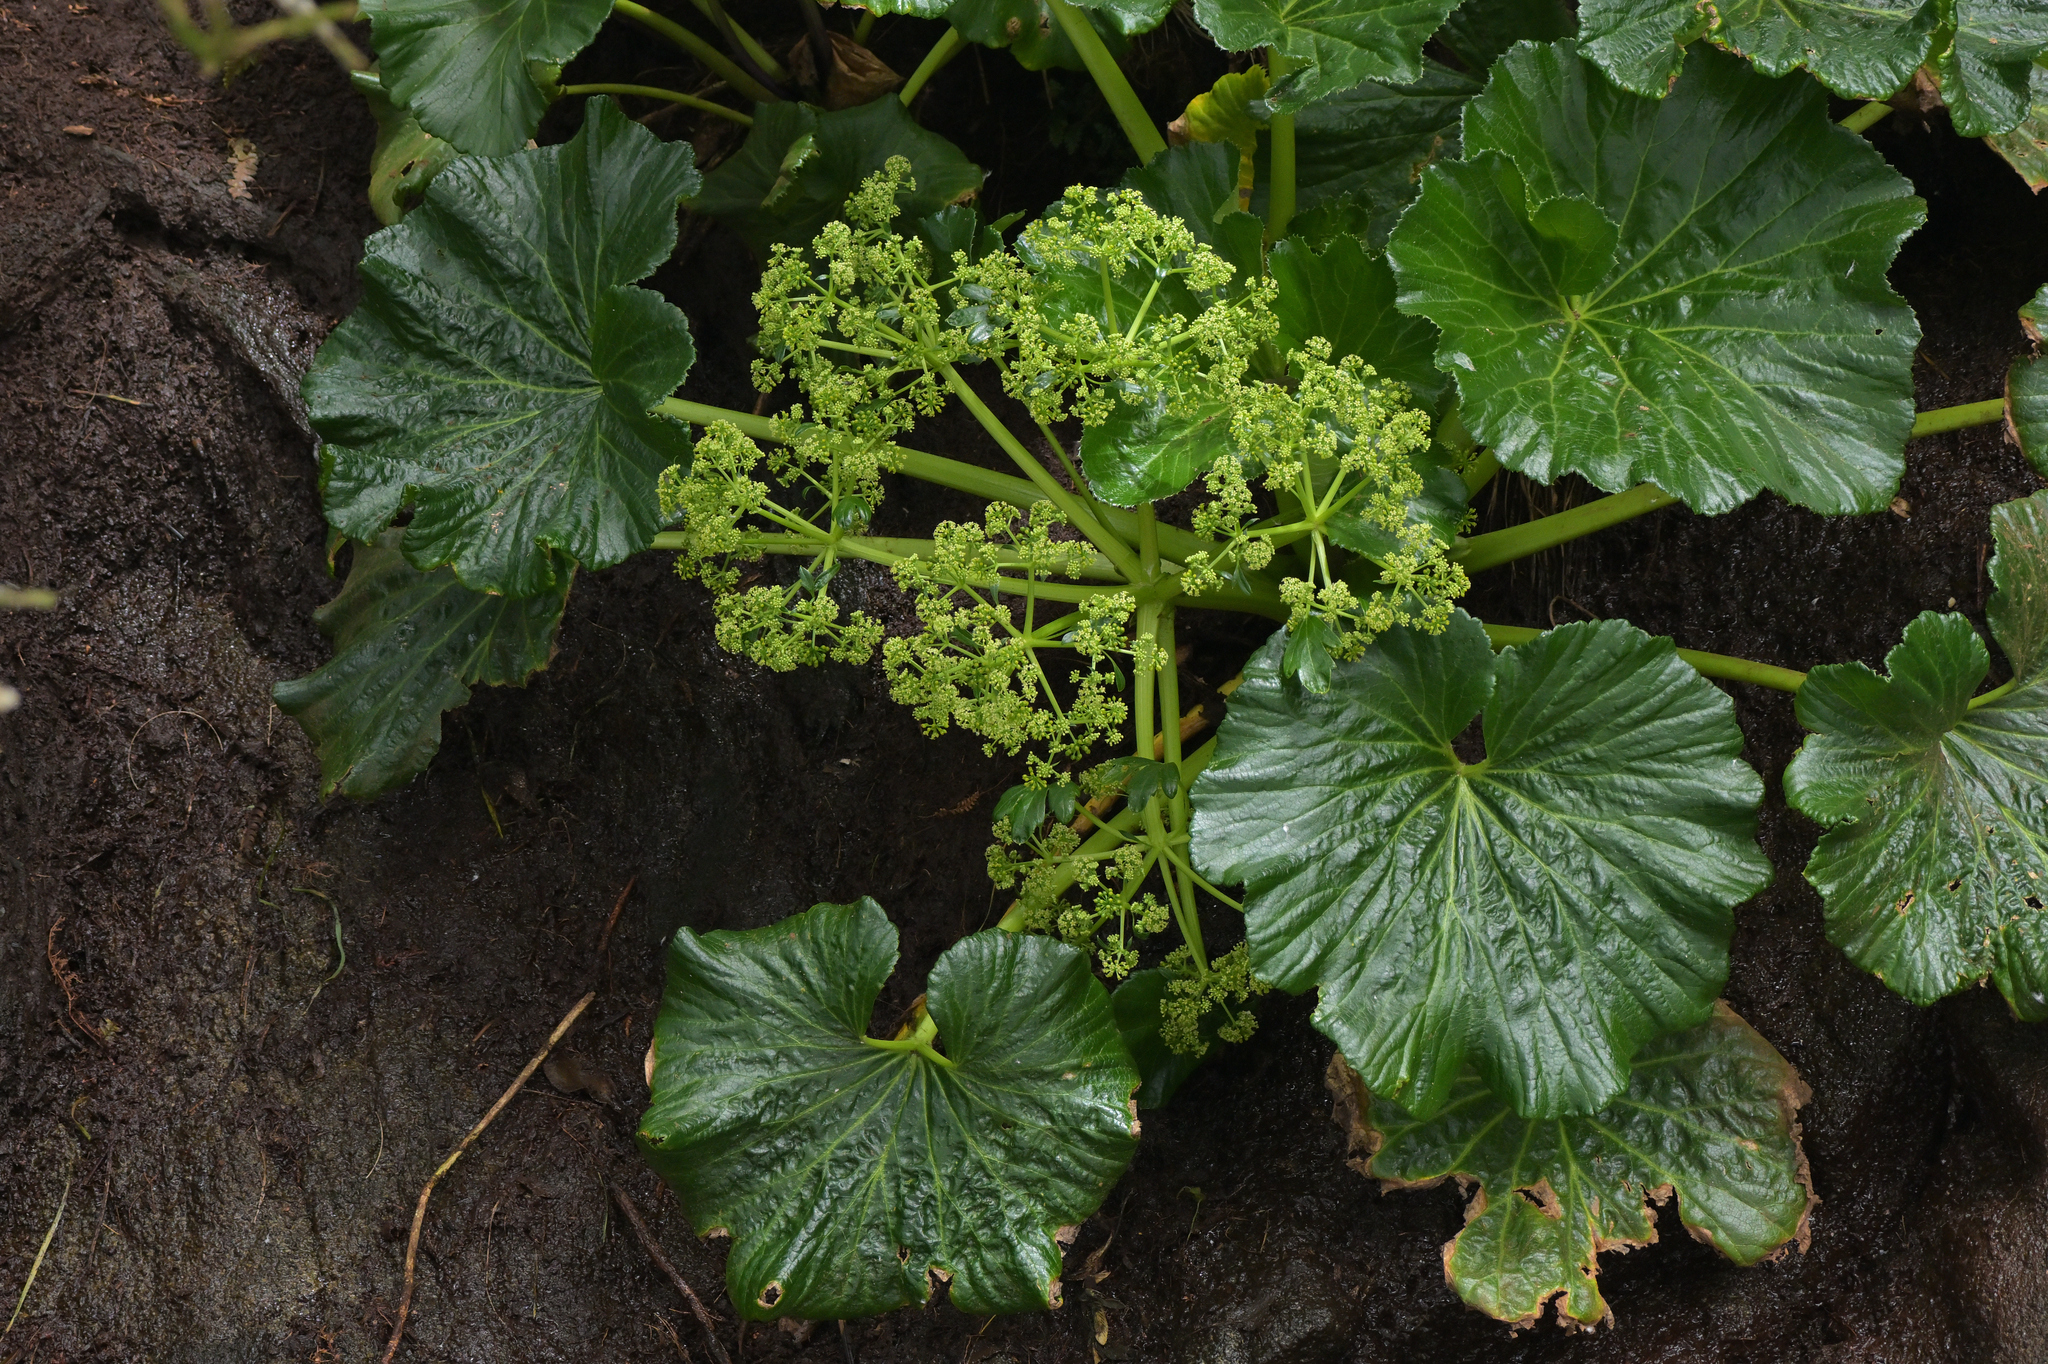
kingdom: Plantae
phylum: Tracheophyta
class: Magnoliopsida
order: Apiales
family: Apiaceae
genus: Azorella
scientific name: Azorella robusta
